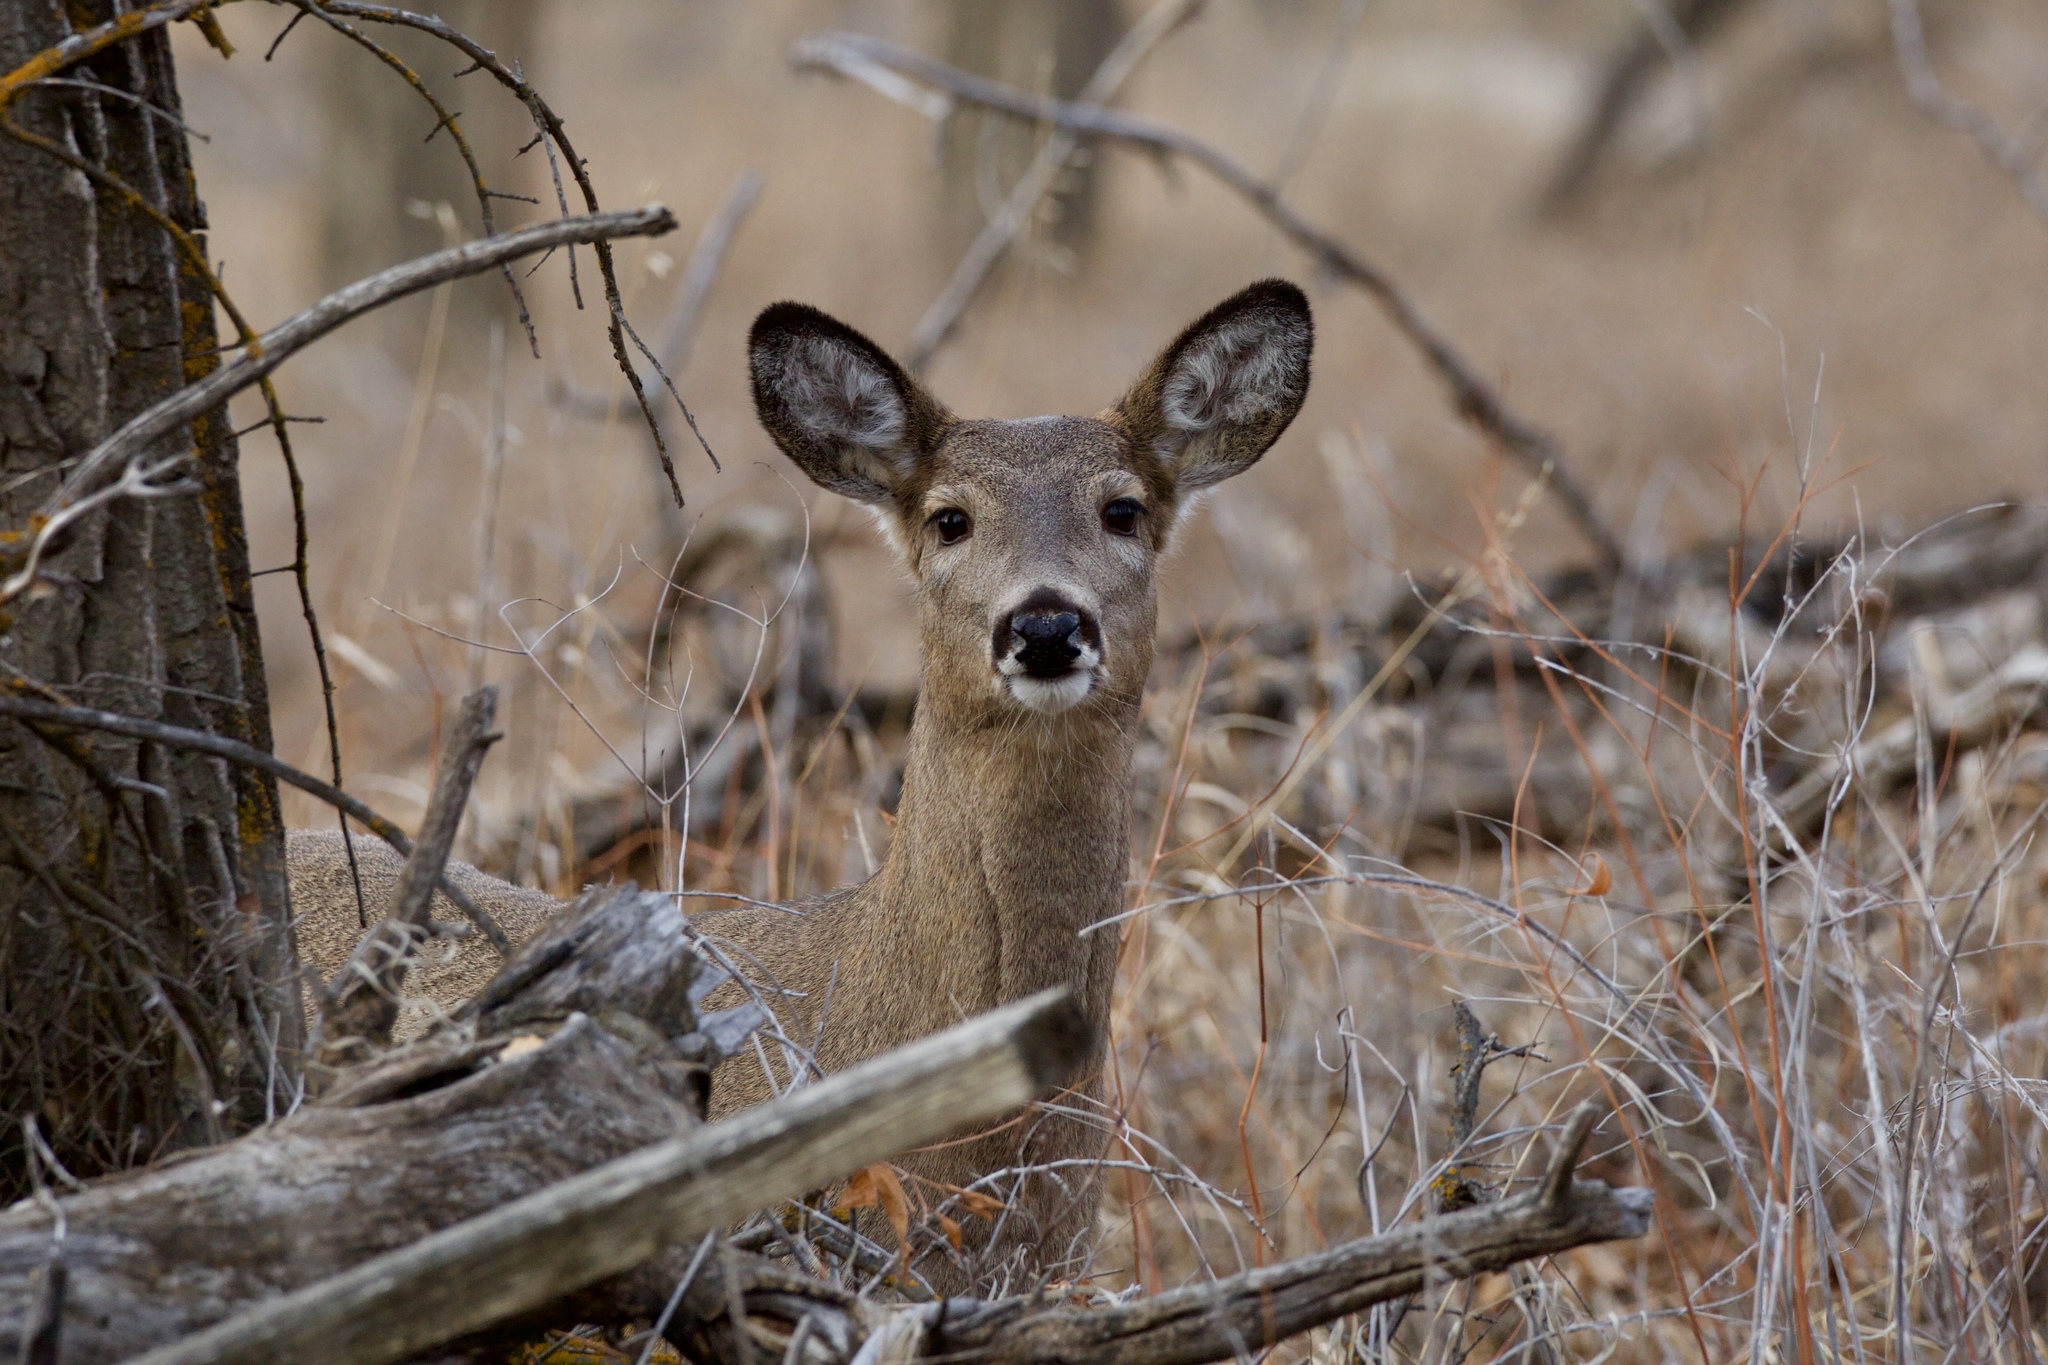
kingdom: Animalia
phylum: Chordata
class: Mammalia
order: Artiodactyla
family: Cervidae
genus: Odocoileus
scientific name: Odocoileus virginianus
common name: White-tailed deer
